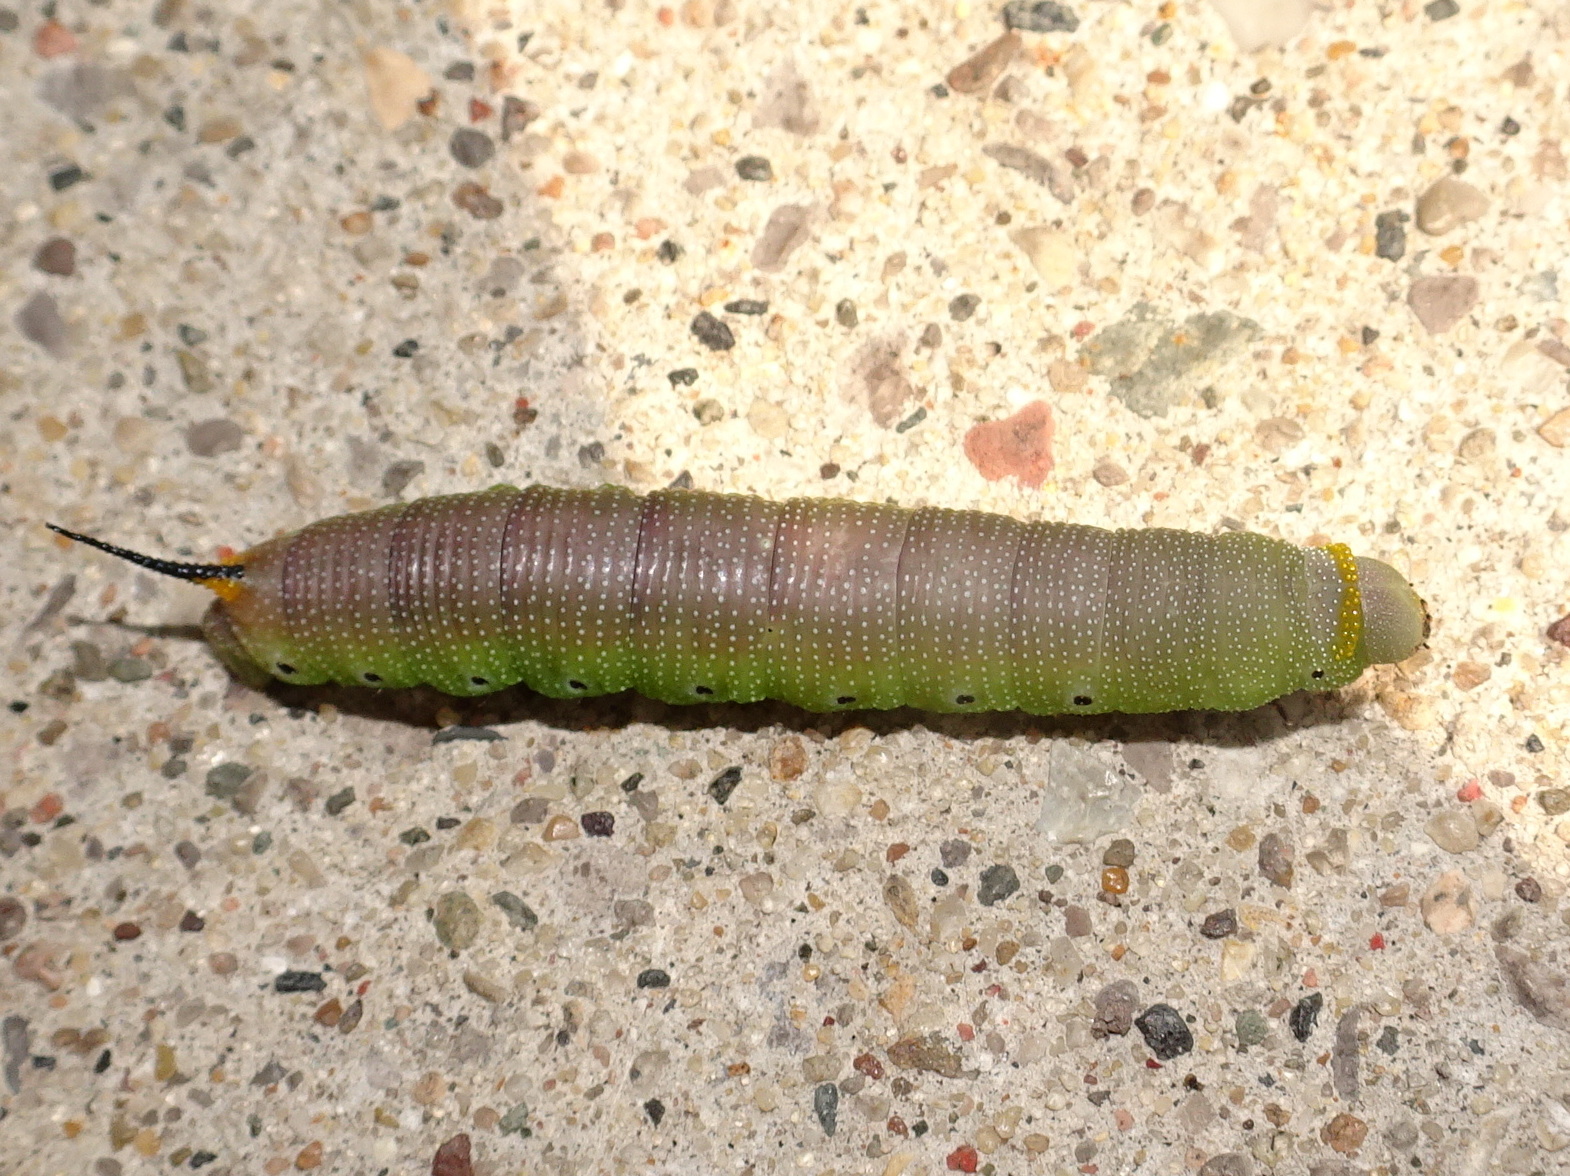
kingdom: Animalia
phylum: Arthropoda
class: Insecta
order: Lepidoptera
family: Sphingidae
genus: Hemaris
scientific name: Hemaris diffinis
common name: Bumblebee moth
